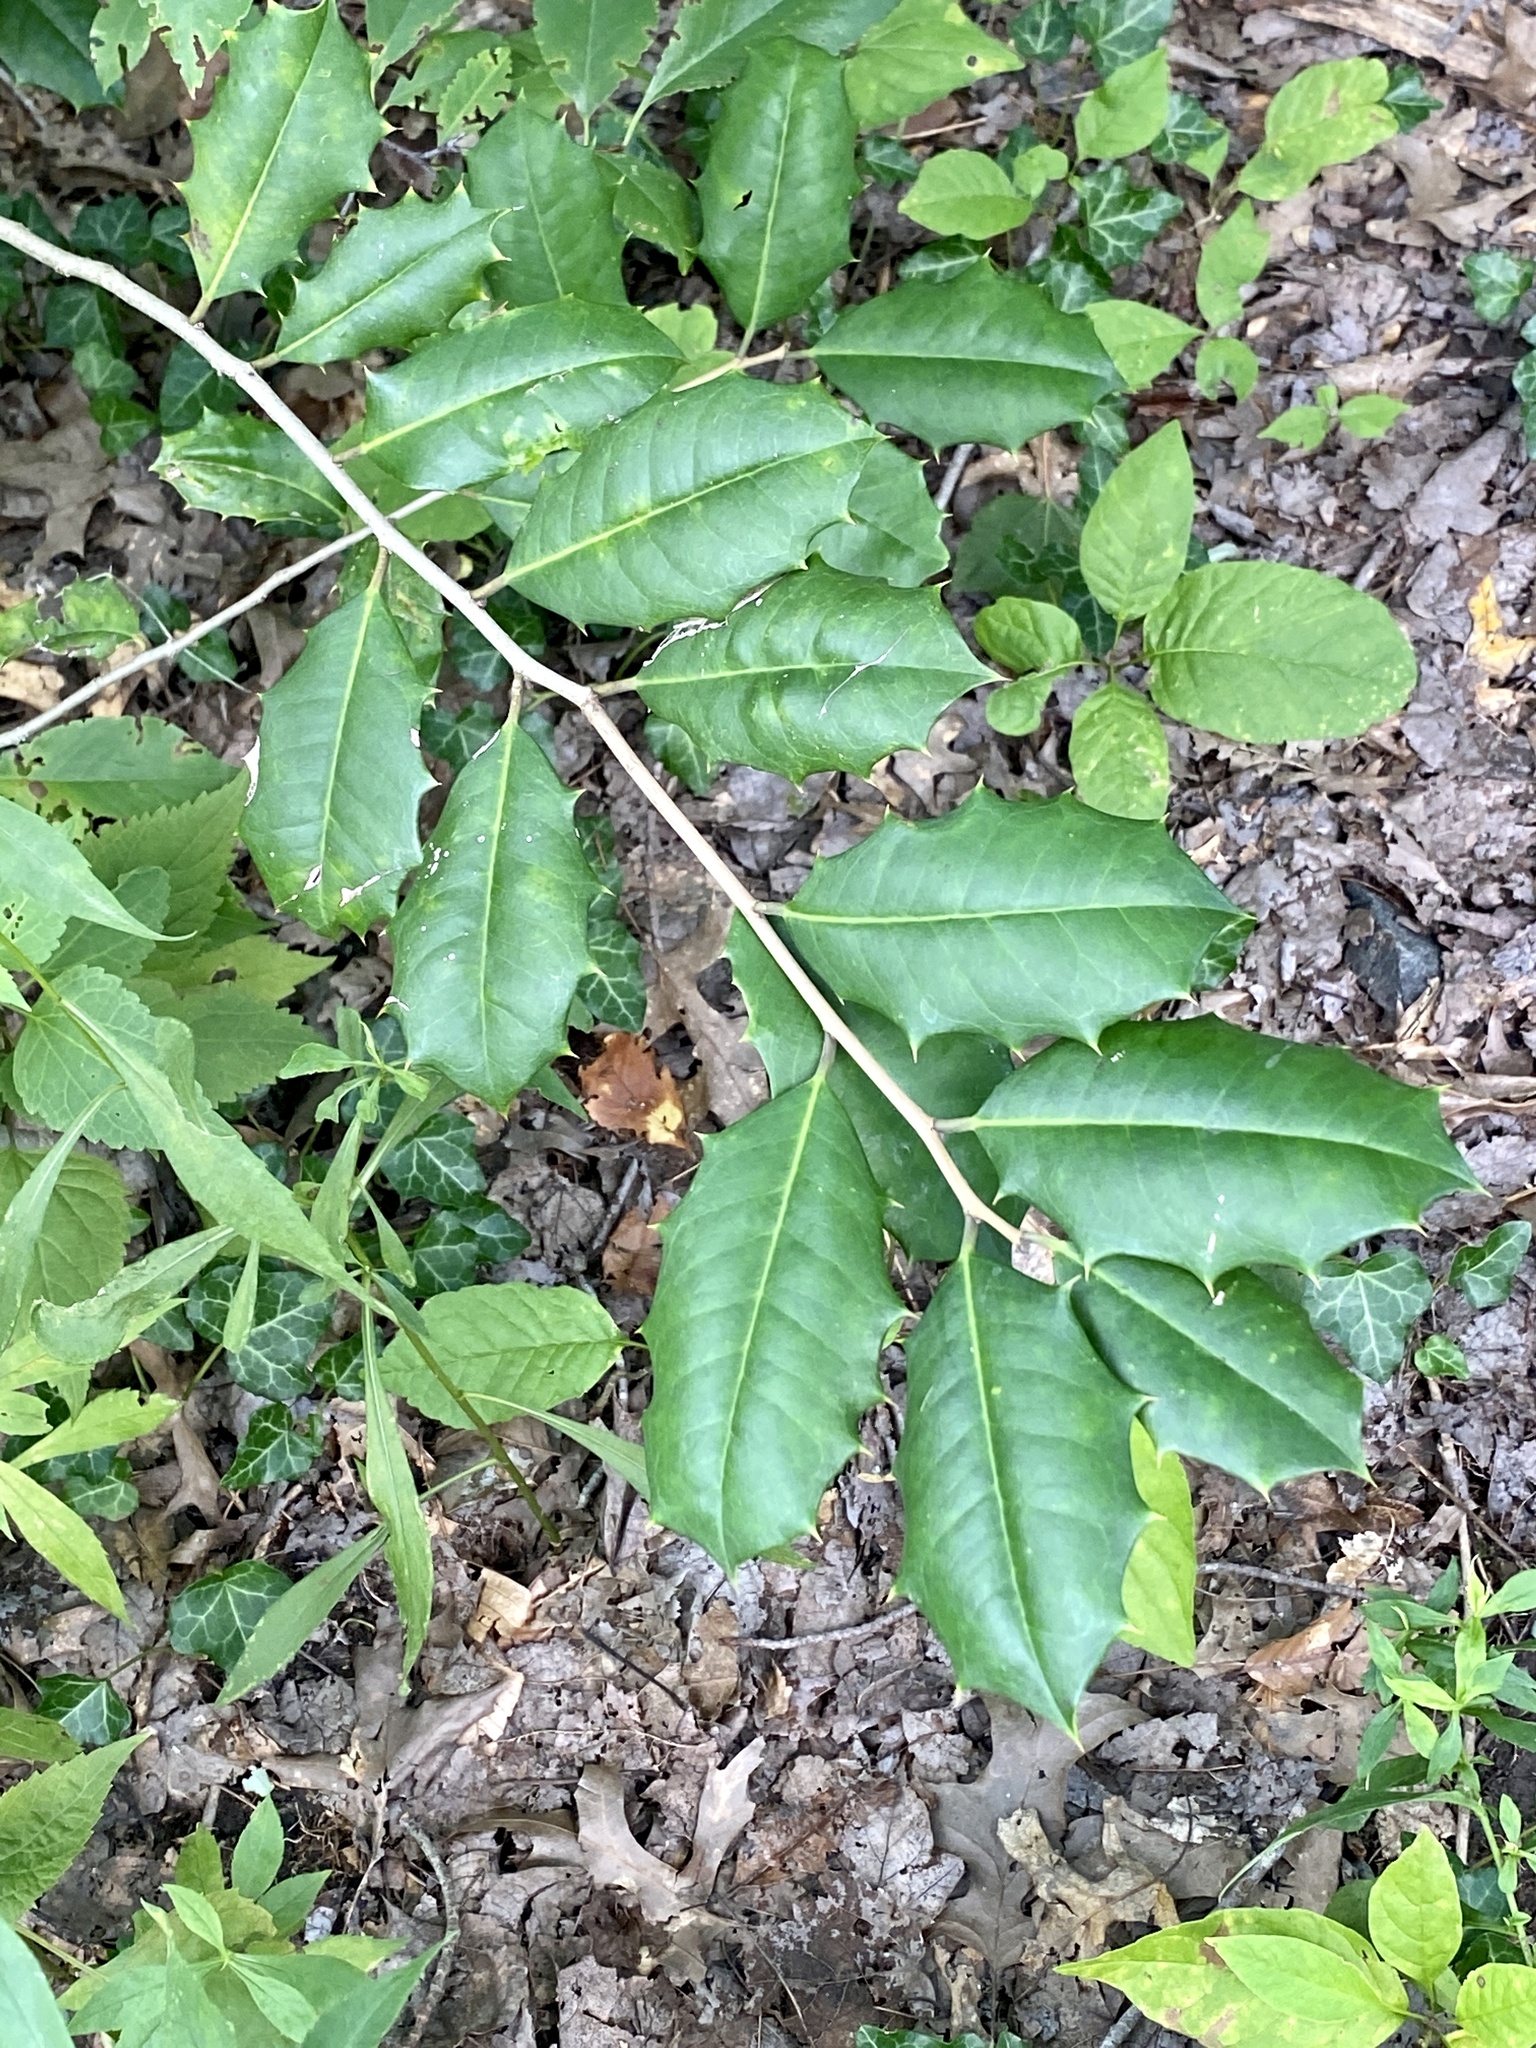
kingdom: Plantae
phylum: Tracheophyta
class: Magnoliopsida
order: Aquifoliales
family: Aquifoliaceae
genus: Ilex
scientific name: Ilex opaca
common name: American holly
